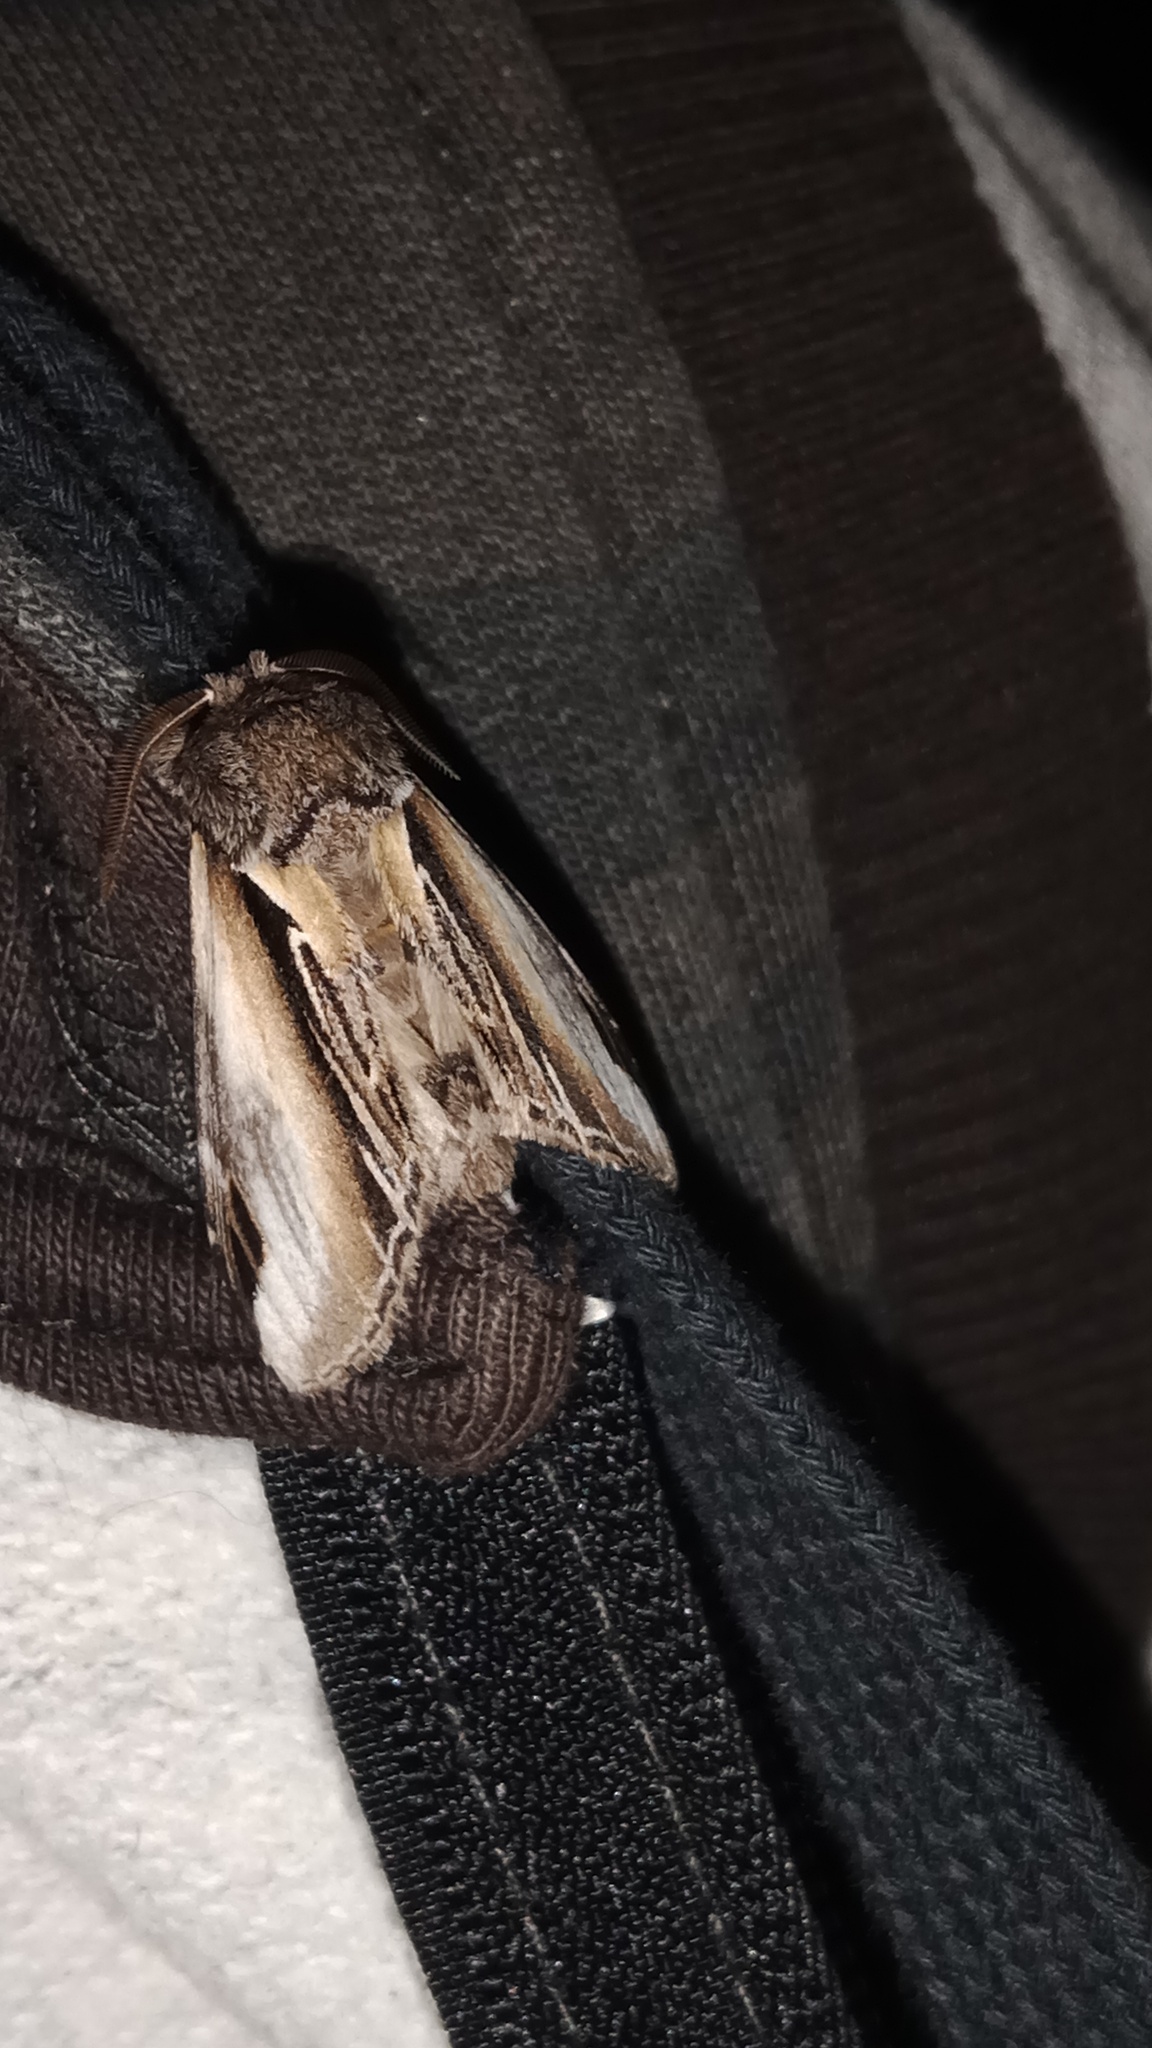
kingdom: Animalia
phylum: Arthropoda
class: Insecta
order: Lepidoptera
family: Notodontidae
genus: Pheosia
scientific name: Pheosia tremula
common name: Swallow prominent
